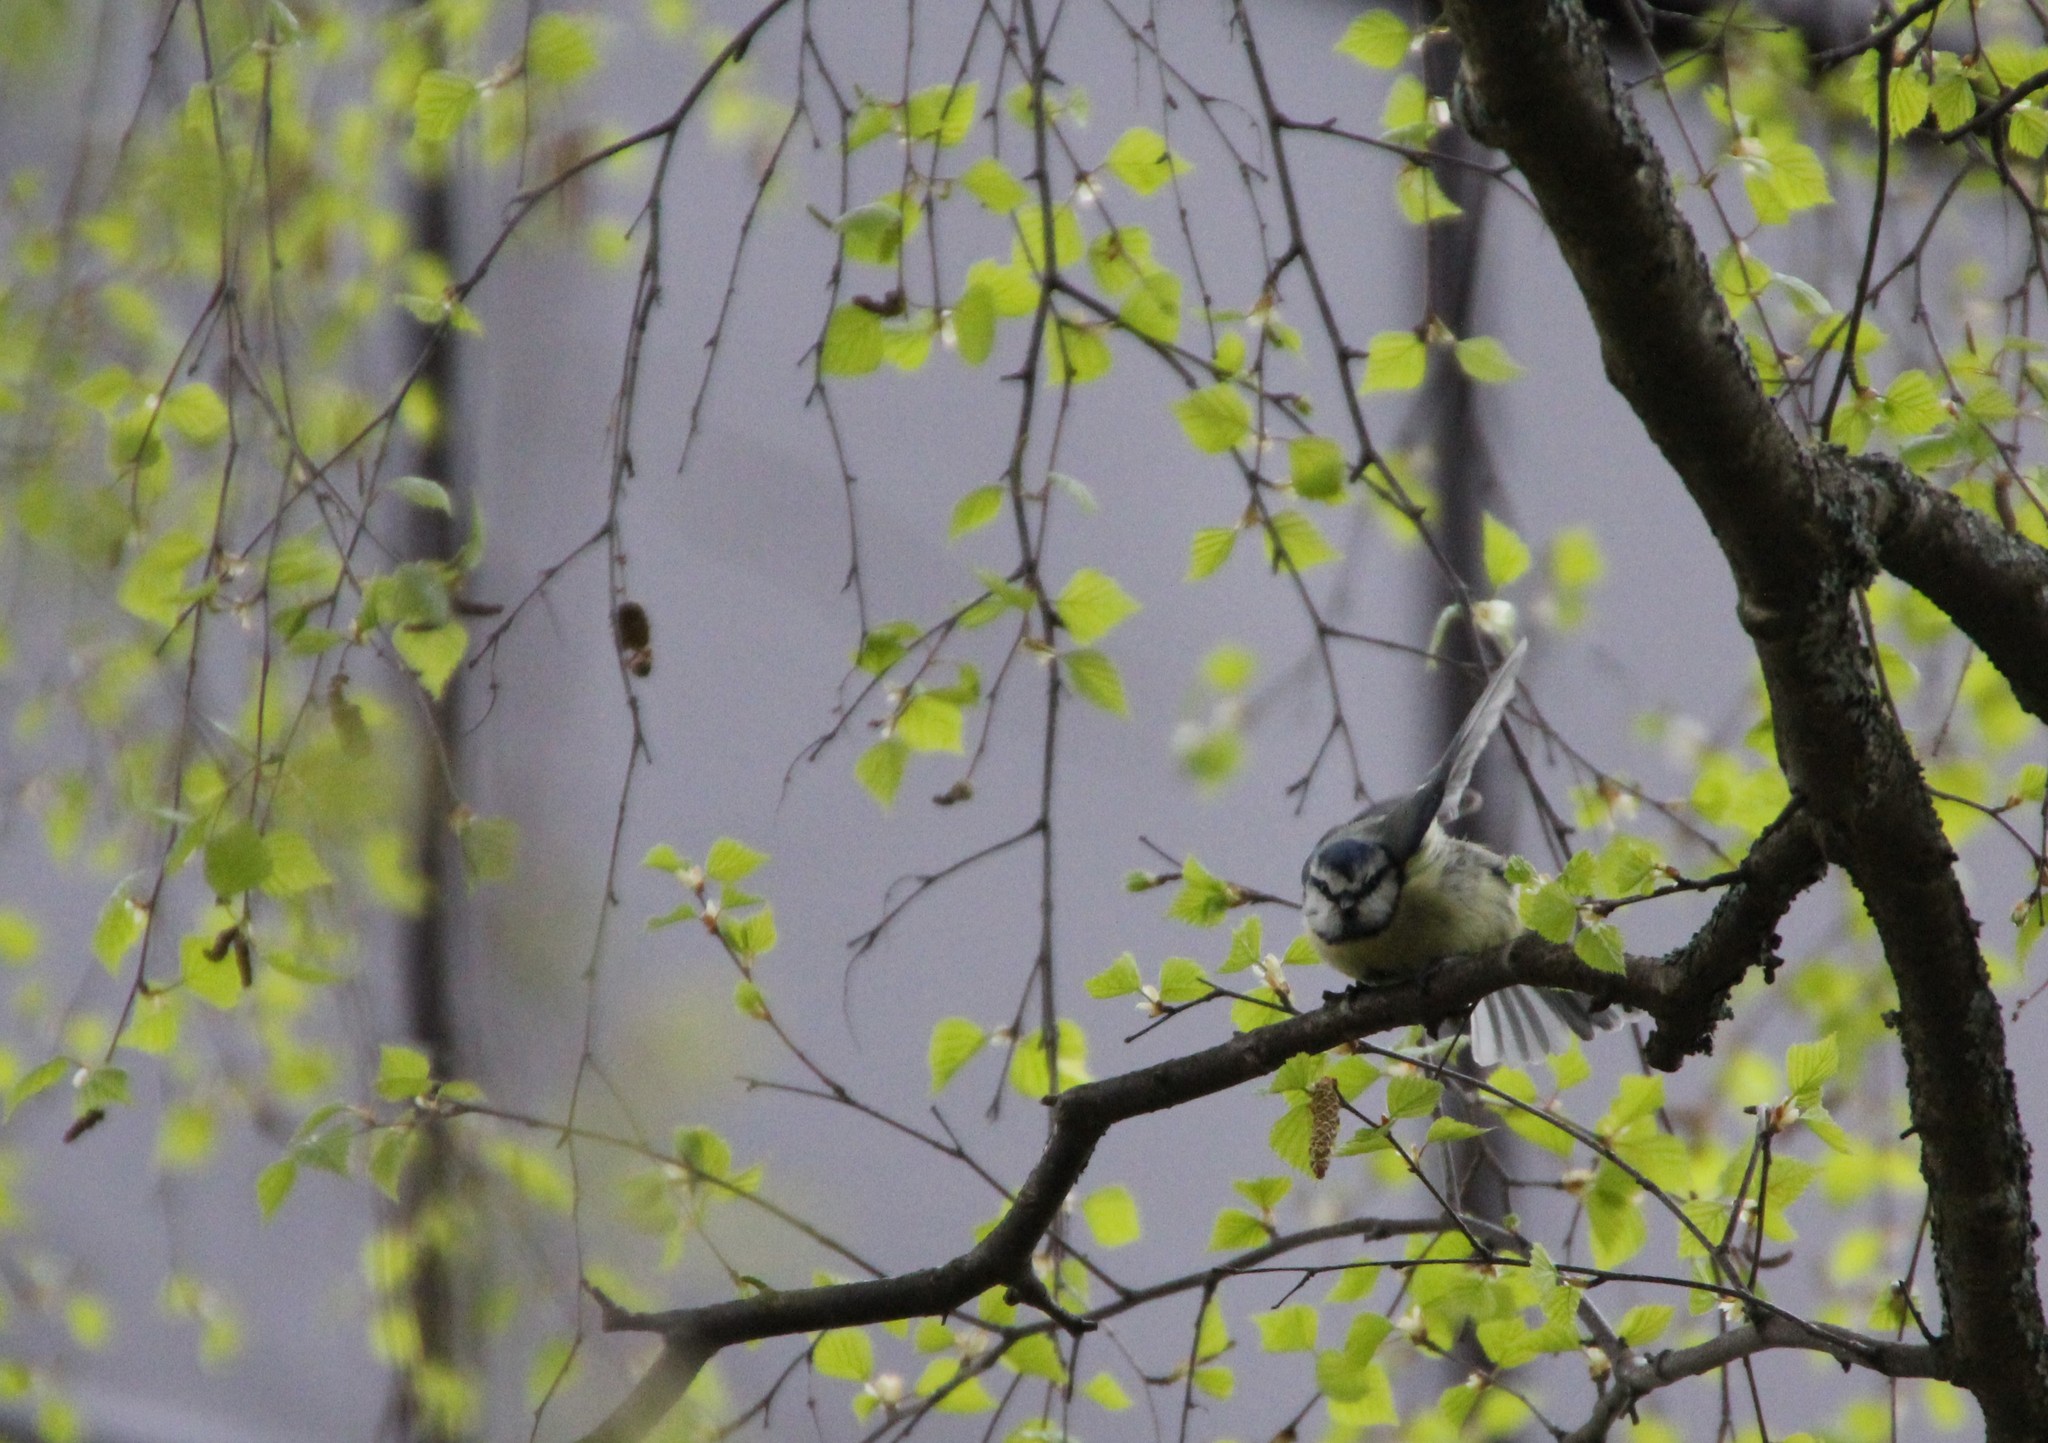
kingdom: Animalia
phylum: Chordata
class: Aves
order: Passeriformes
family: Paridae
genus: Cyanistes
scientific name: Cyanistes caeruleus
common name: Eurasian blue tit
